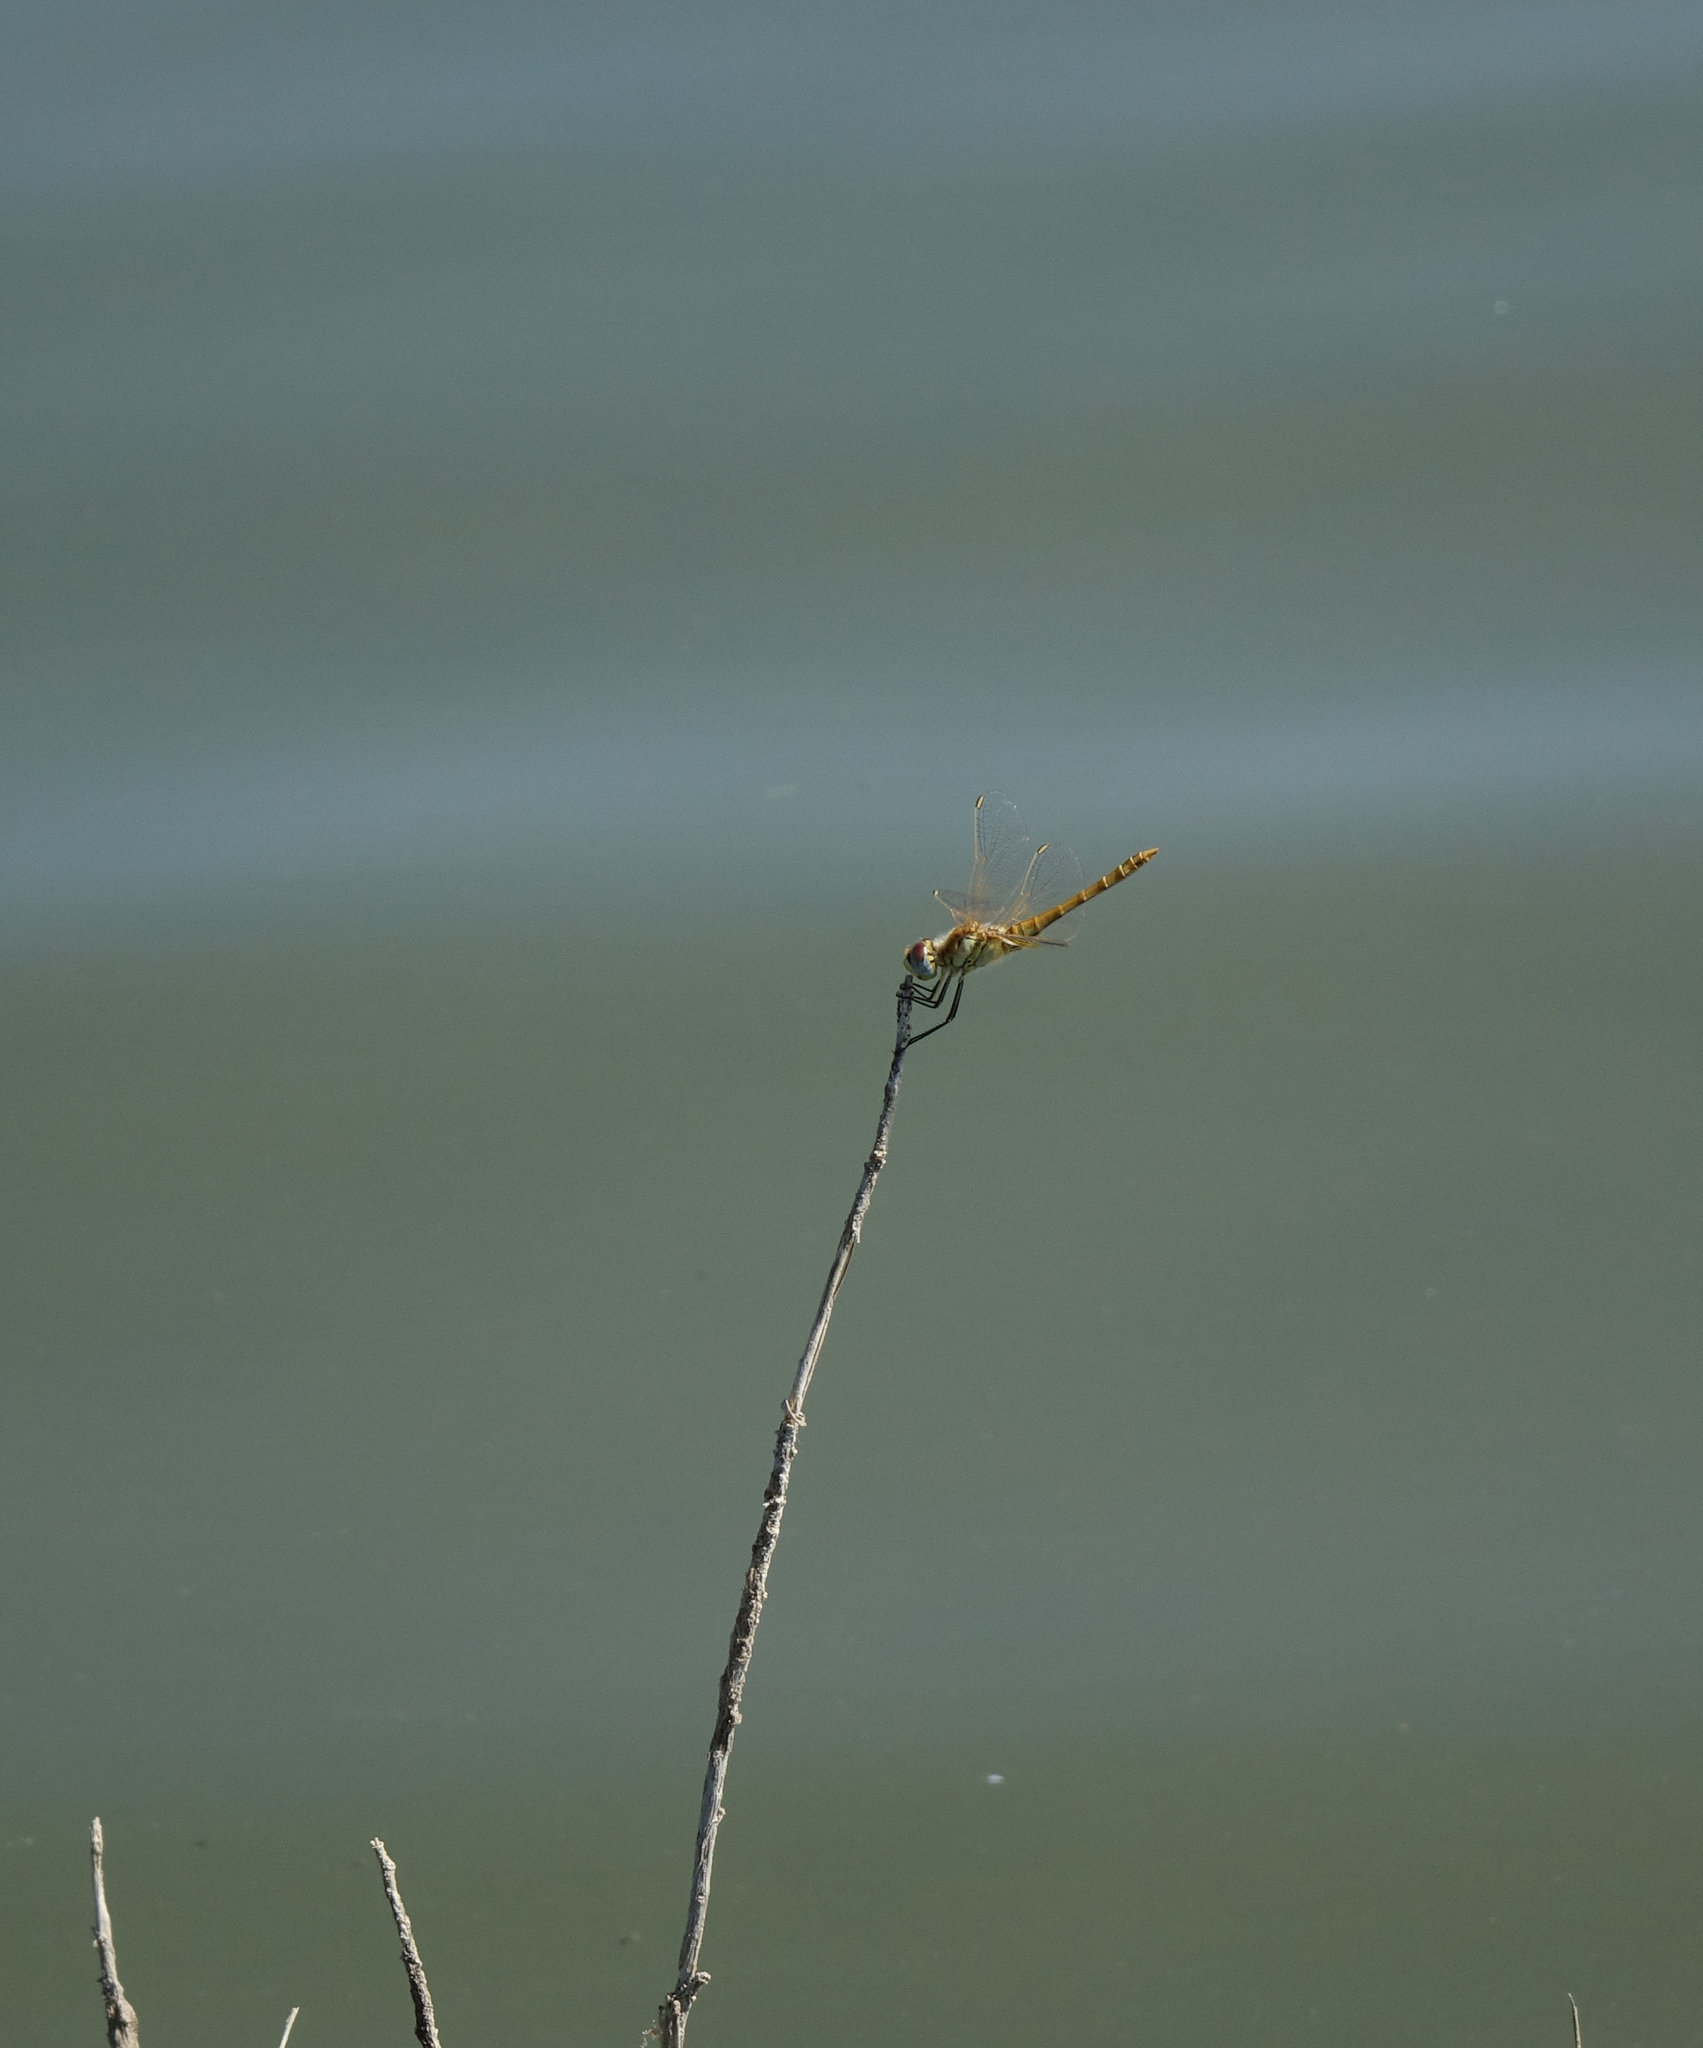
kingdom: Animalia
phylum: Arthropoda
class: Insecta
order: Odonata
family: Libellulidae
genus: Sympetrum
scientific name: Sympetrum fonscolombii
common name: Red-veined darter
